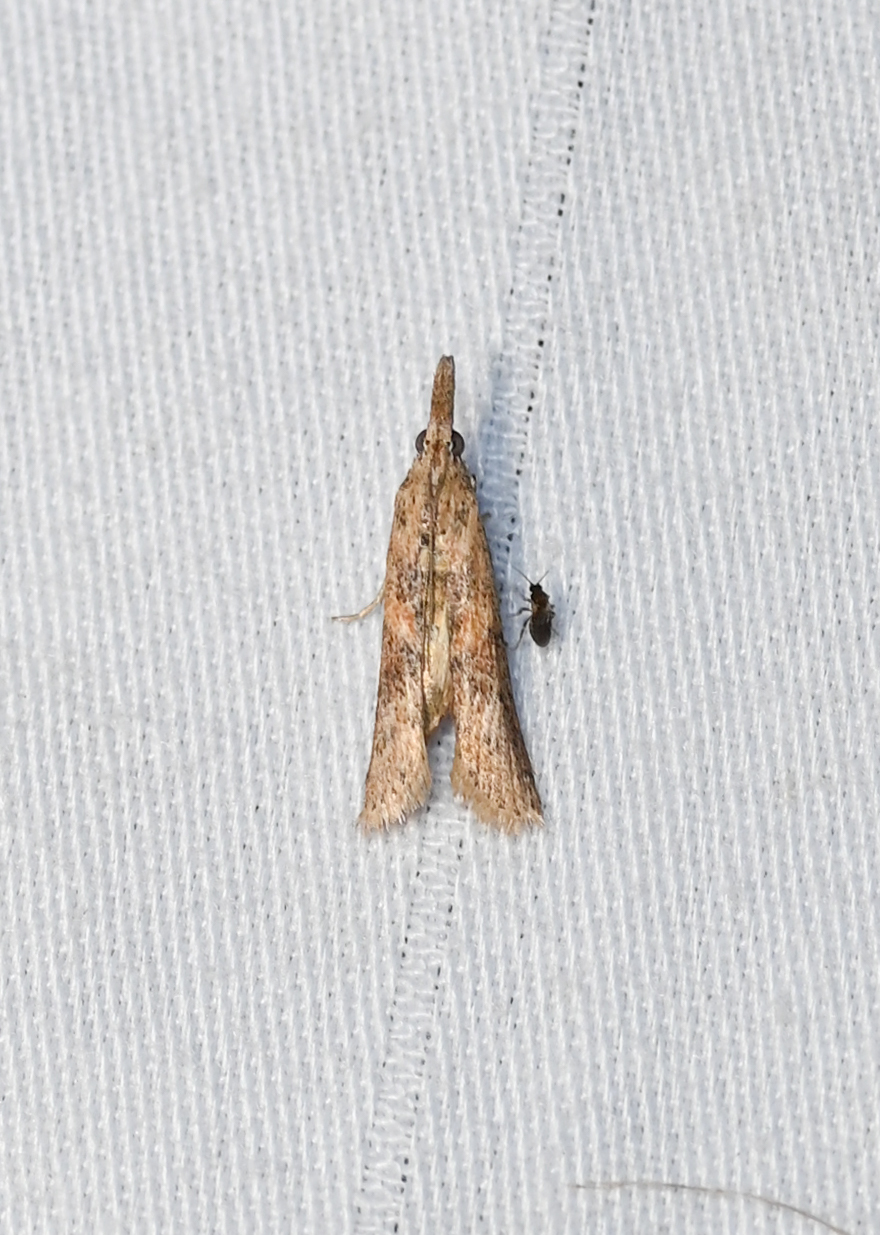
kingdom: Animalia
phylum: Arthropoda
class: Insecta
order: Lepidoptera
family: Pyralidae
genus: Macrorrhinia
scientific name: Macrorrhinia endonephele
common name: Alligator weed stemborer moth
